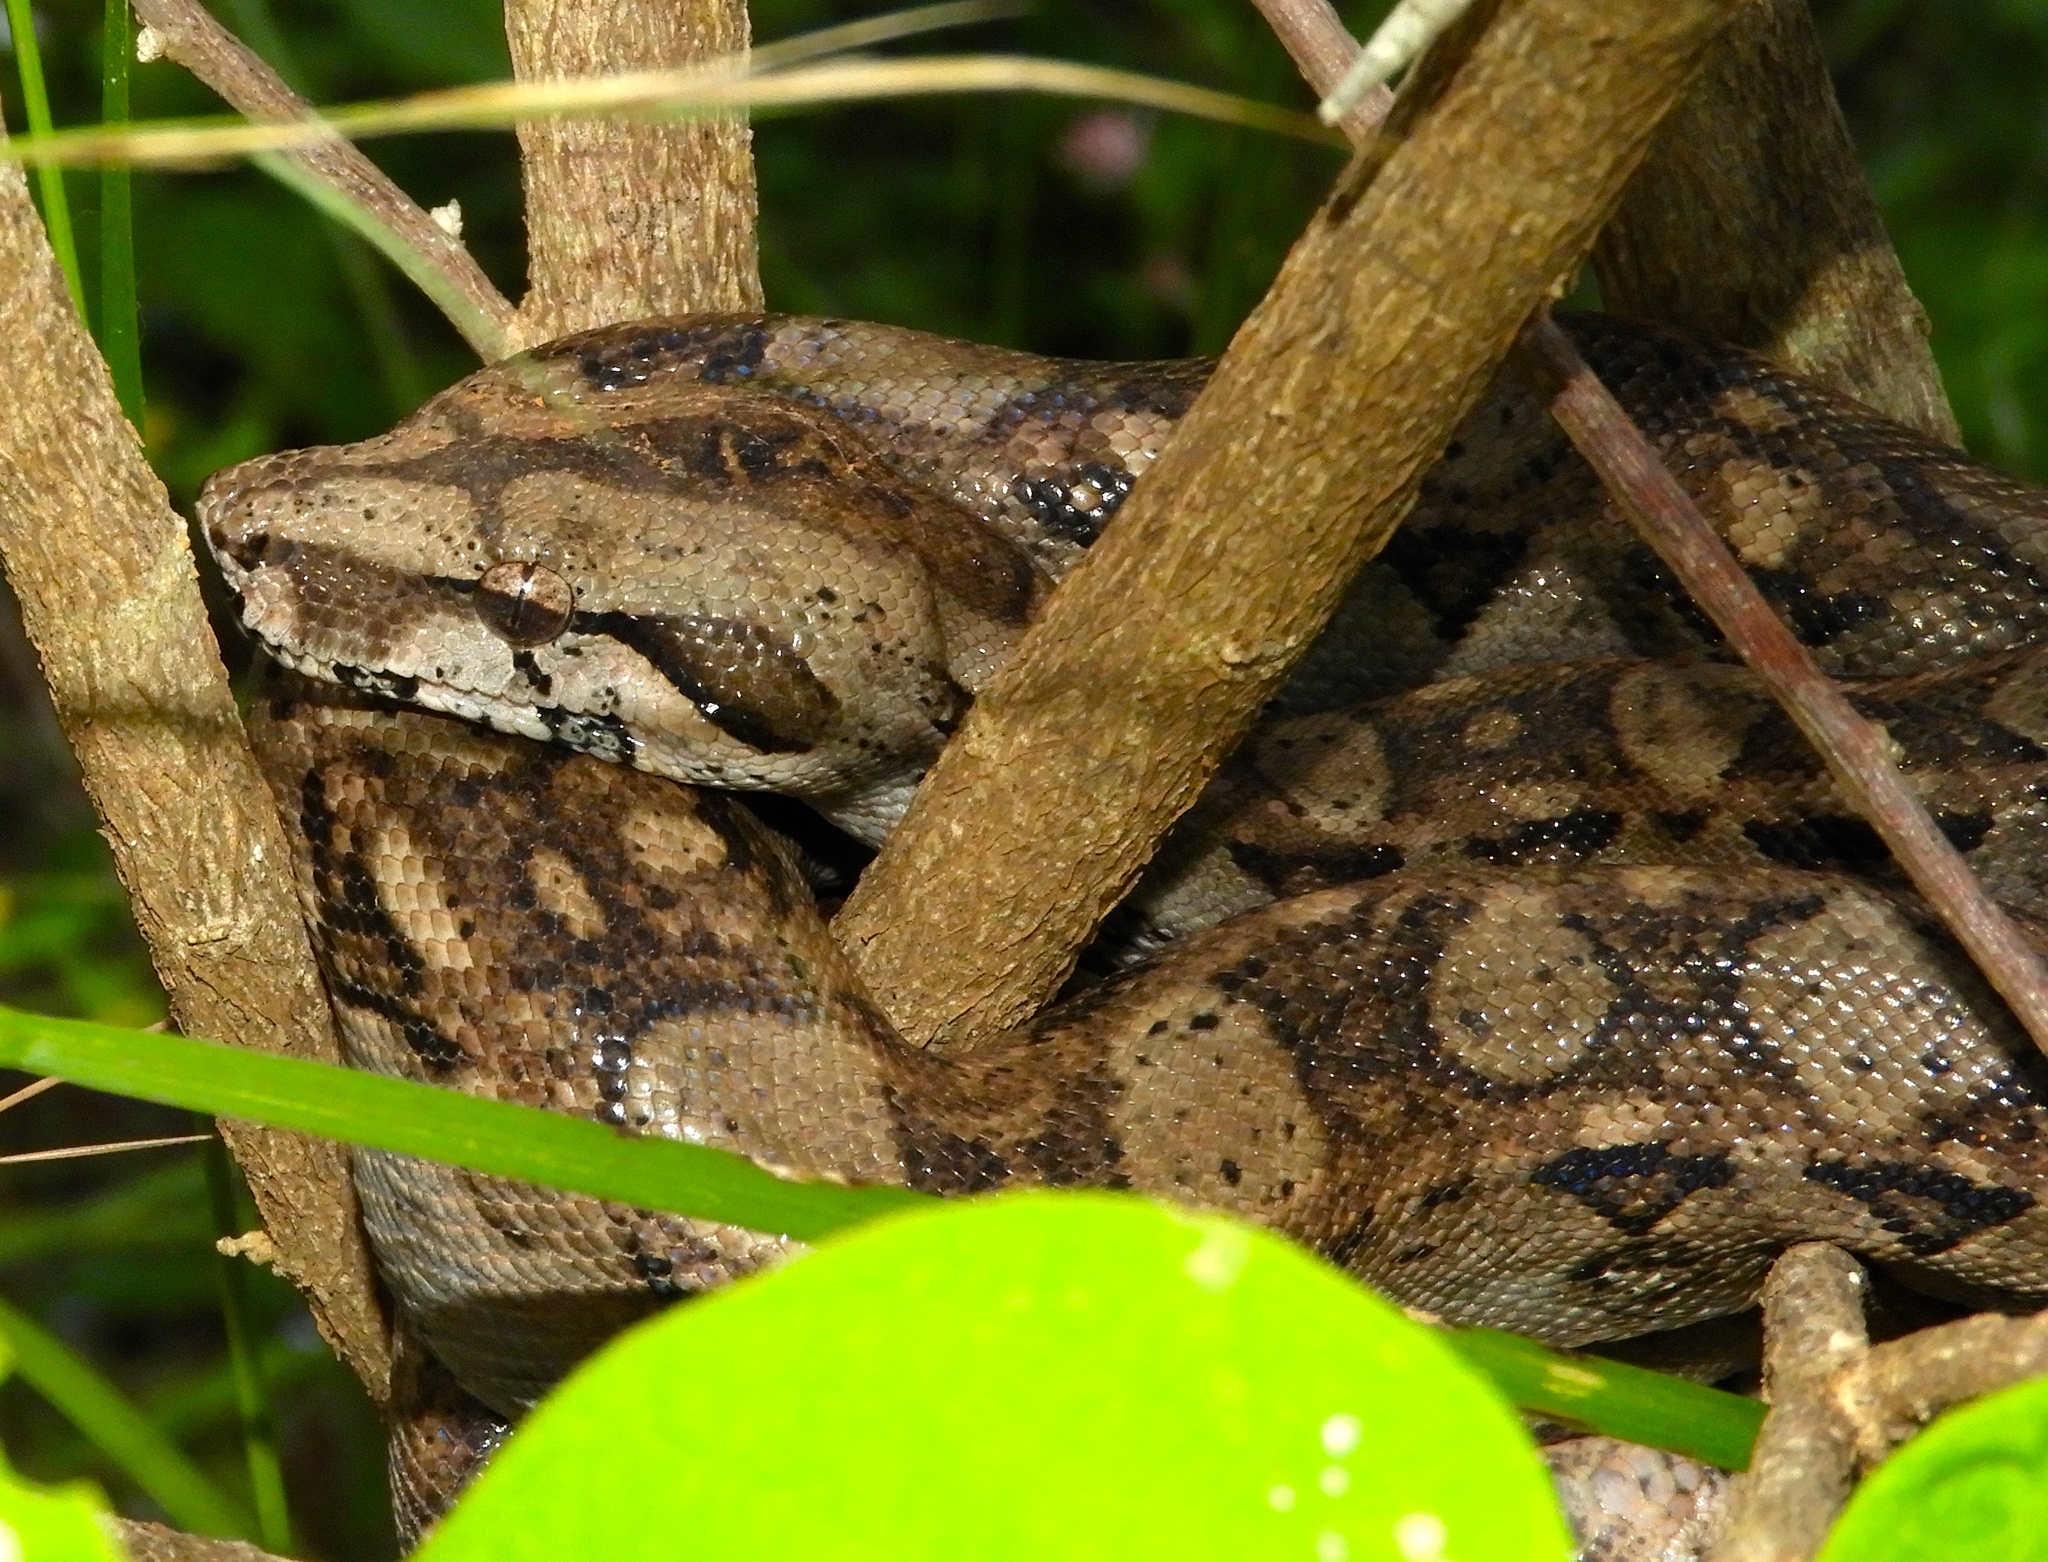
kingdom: Animalia
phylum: Chordata
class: Squamata
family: Boidae
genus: Boa
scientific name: Boa
